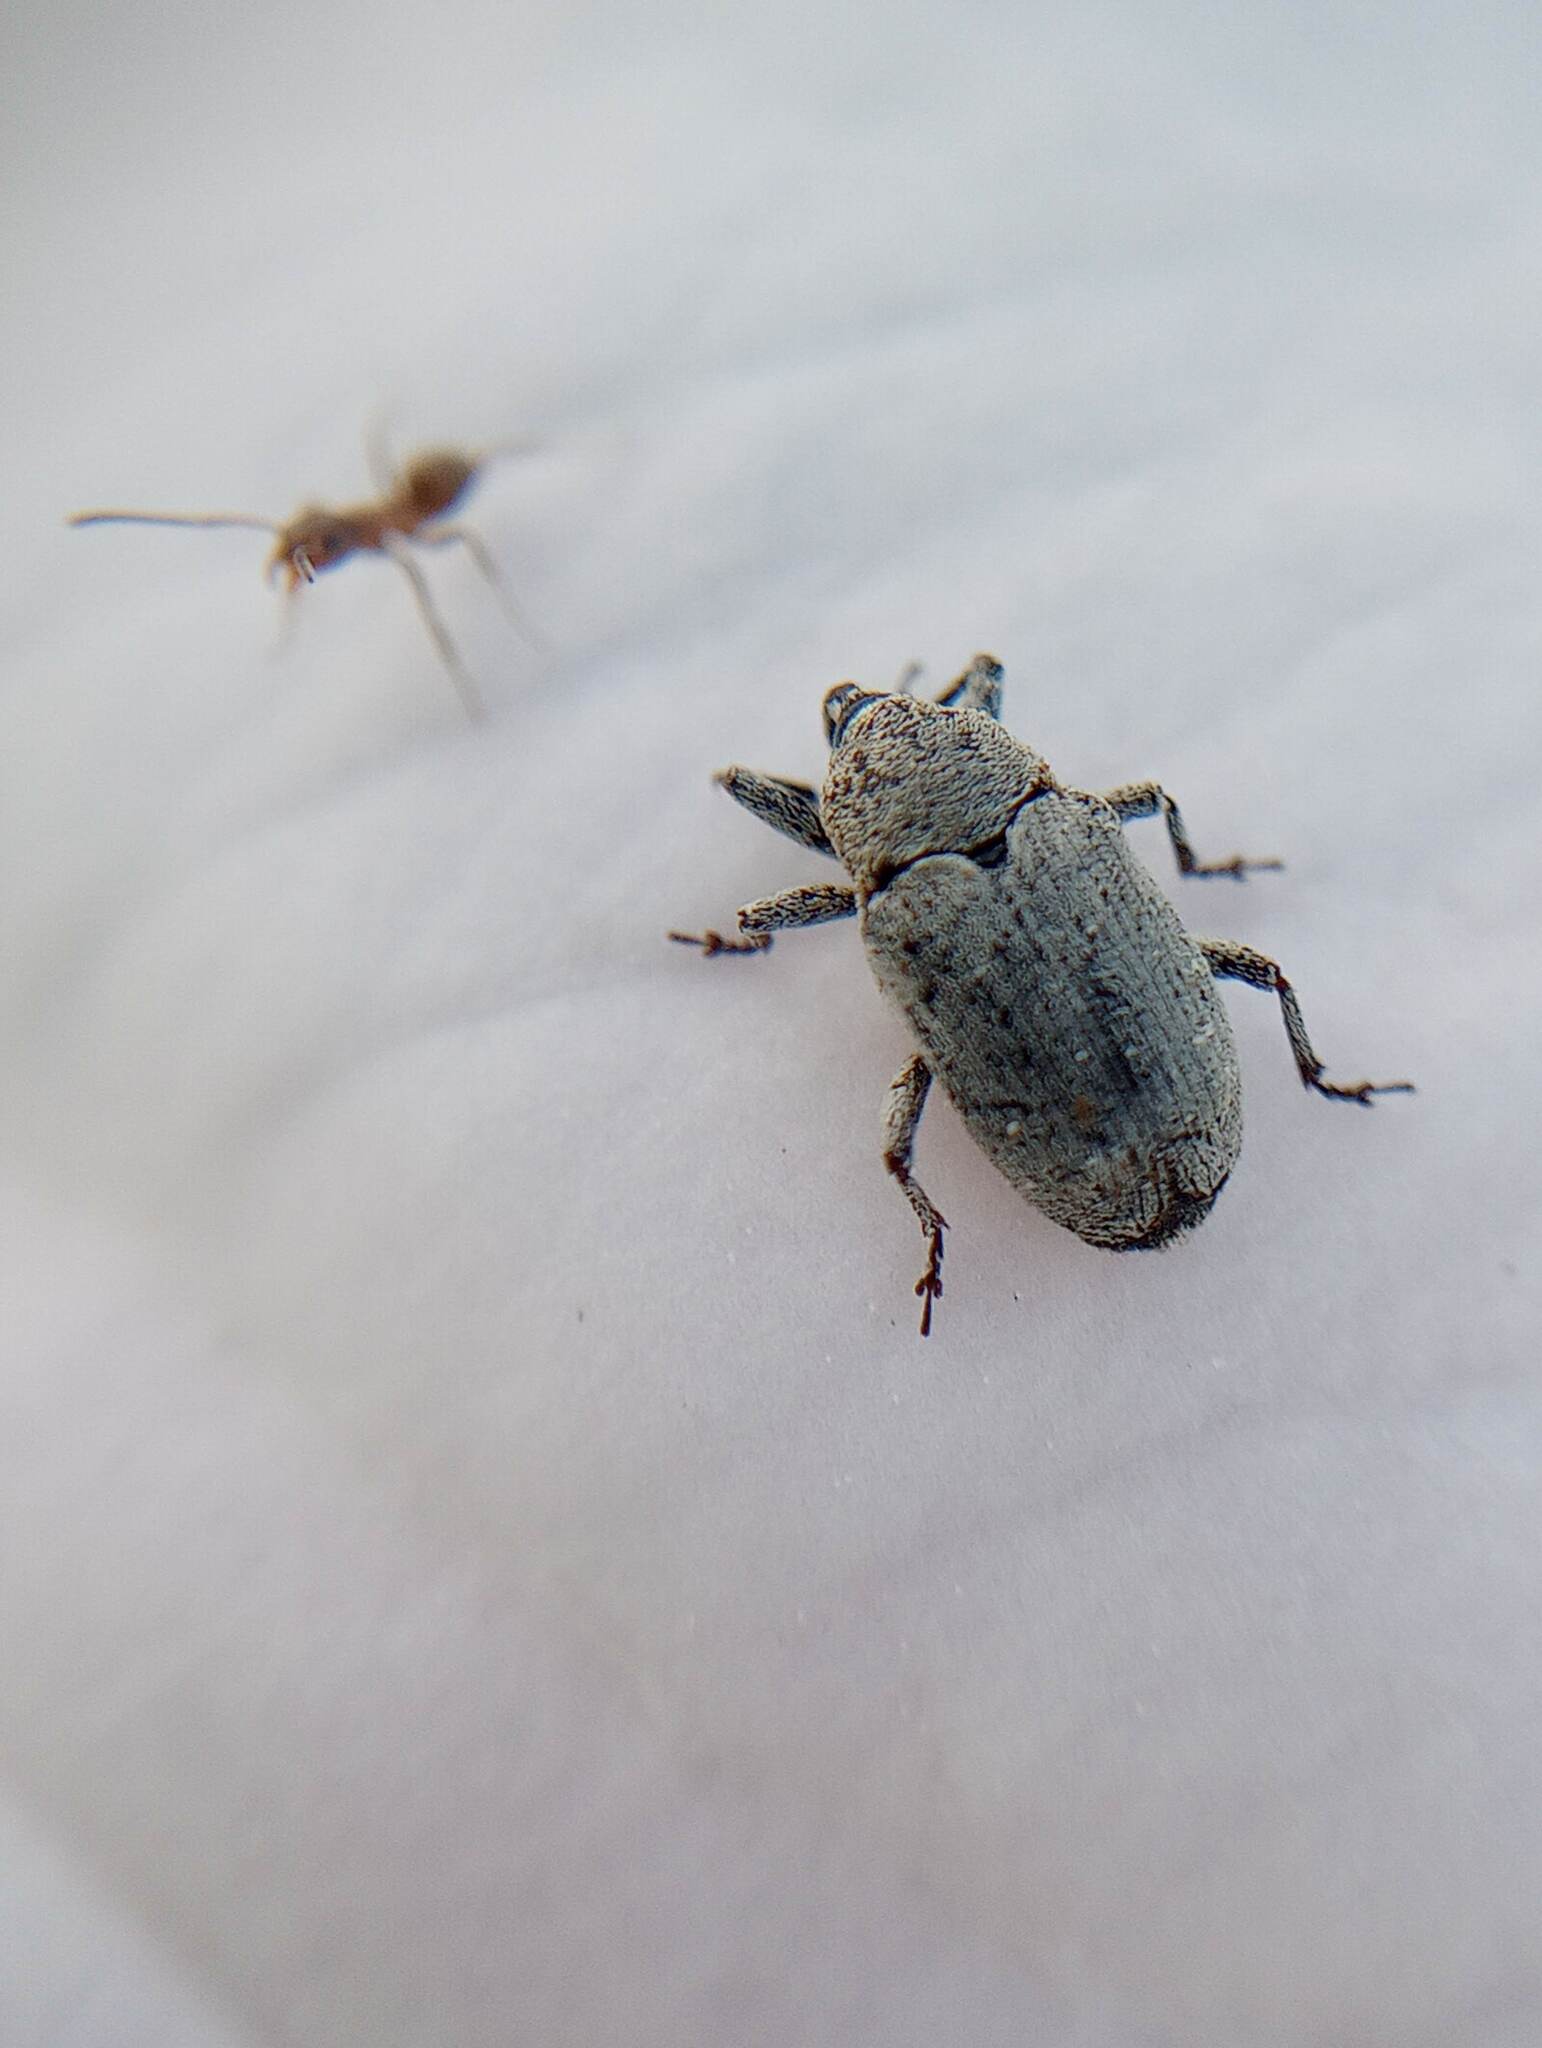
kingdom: Animalia
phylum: Arthropoda
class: Insecta
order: Coleoptera
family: Curculionidae
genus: Trichobaris
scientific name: Trichobaris compacta
